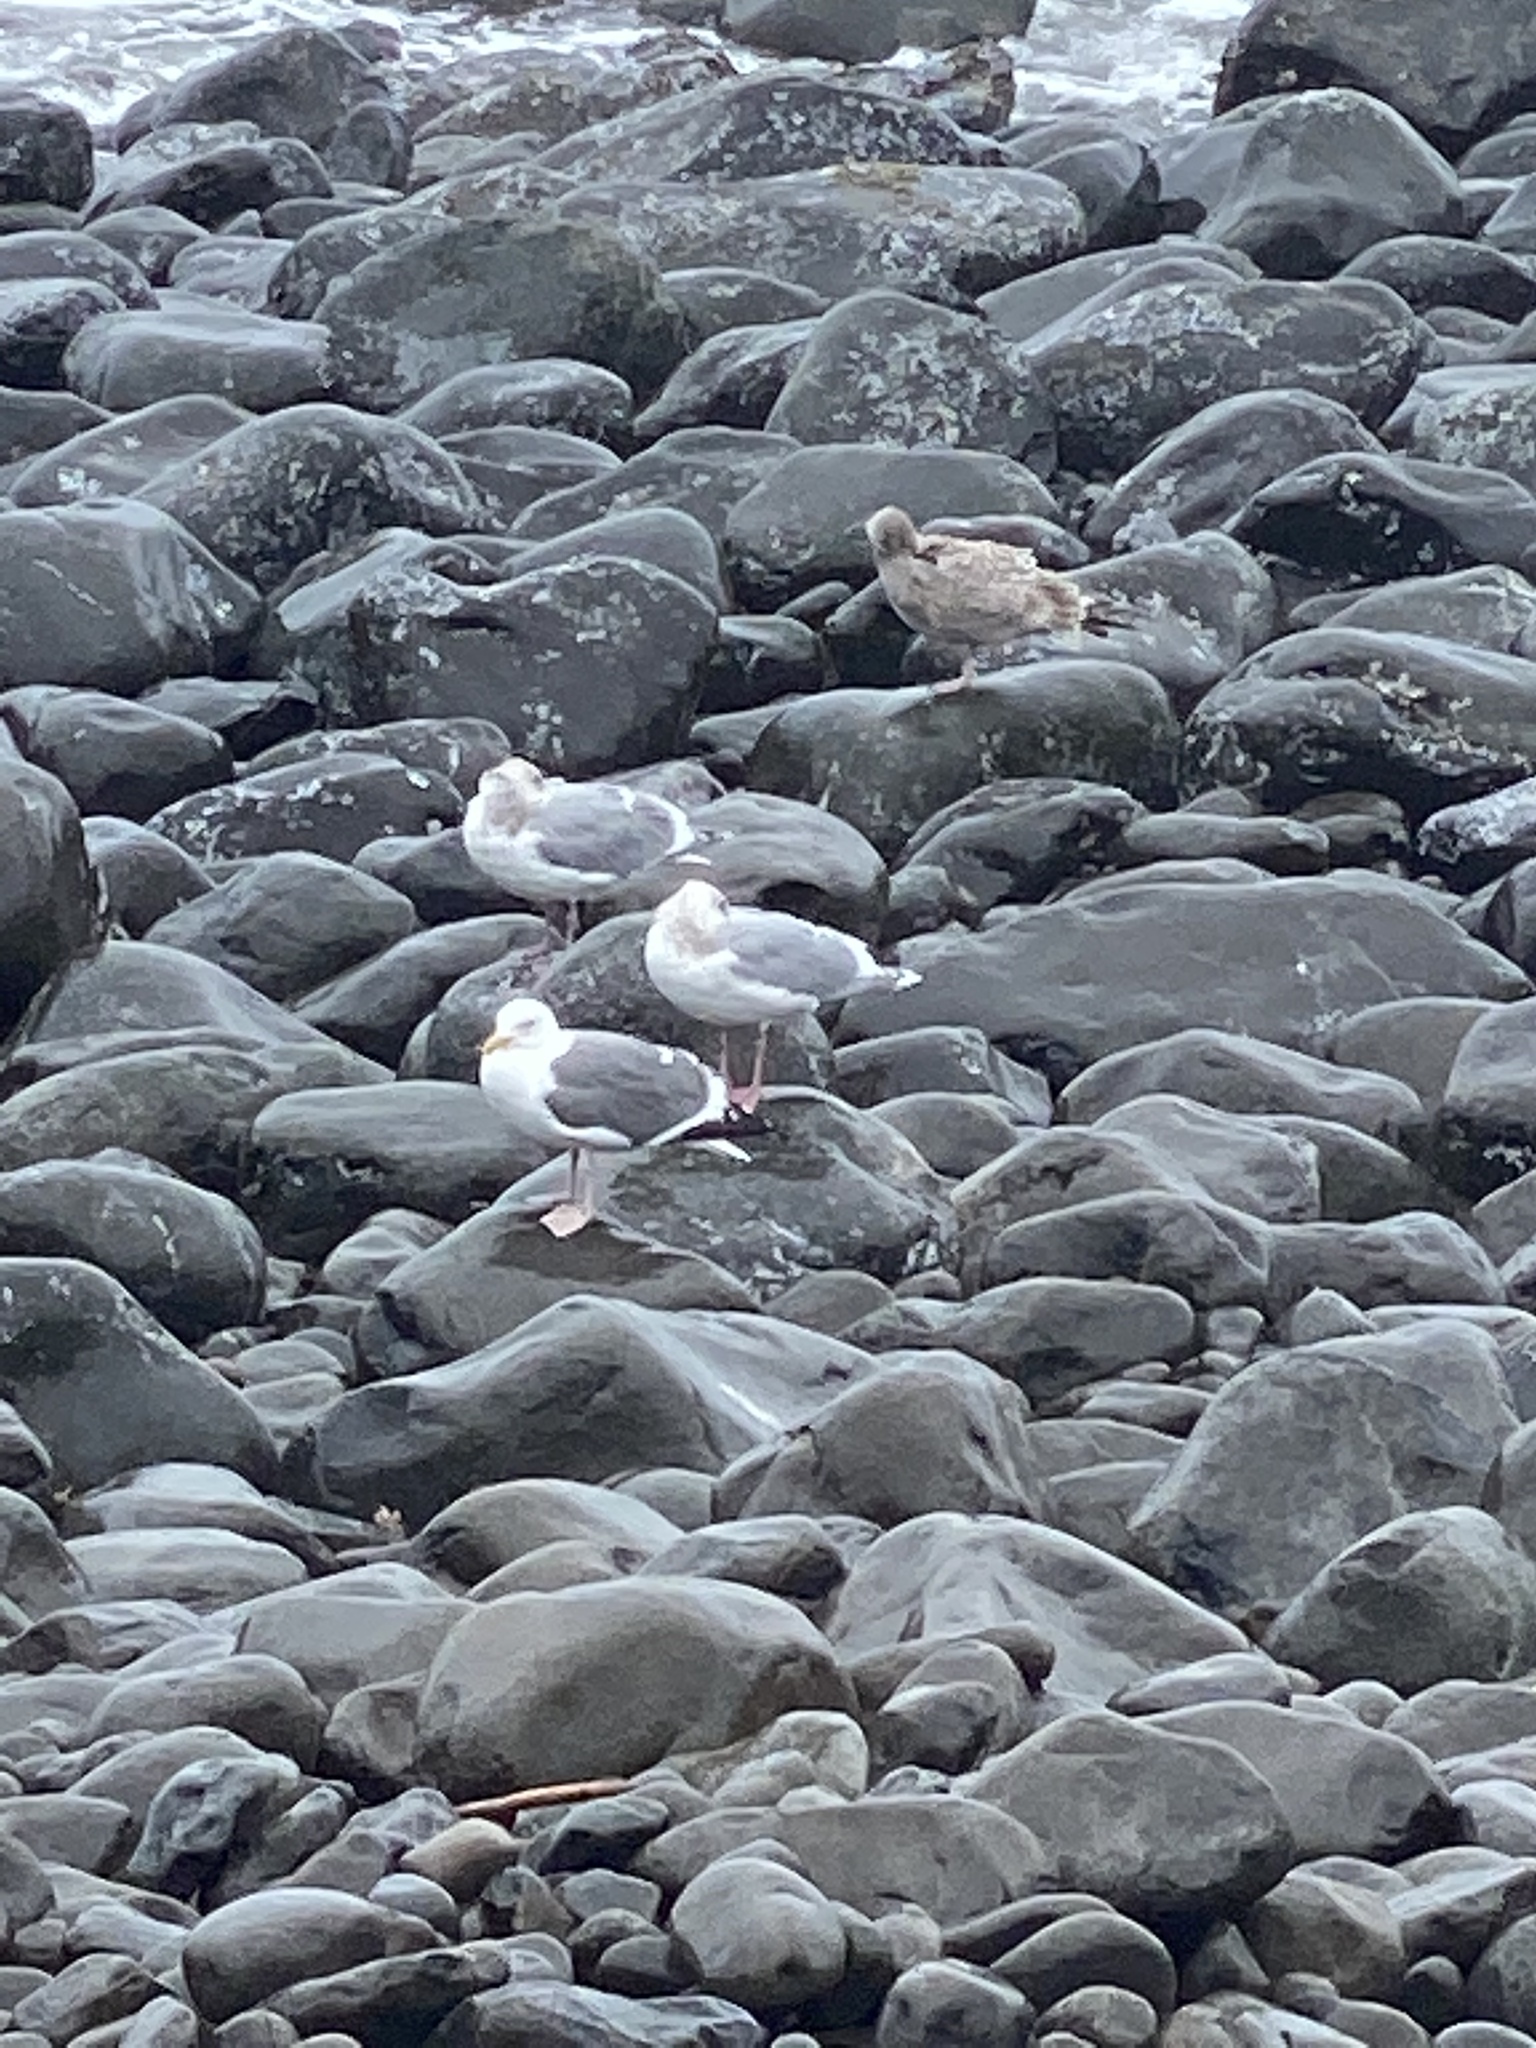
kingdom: Animalia
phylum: Chordata
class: Aves
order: Charadriiformes
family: Laridae
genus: Larus
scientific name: Larus occidentalis
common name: Western gull
